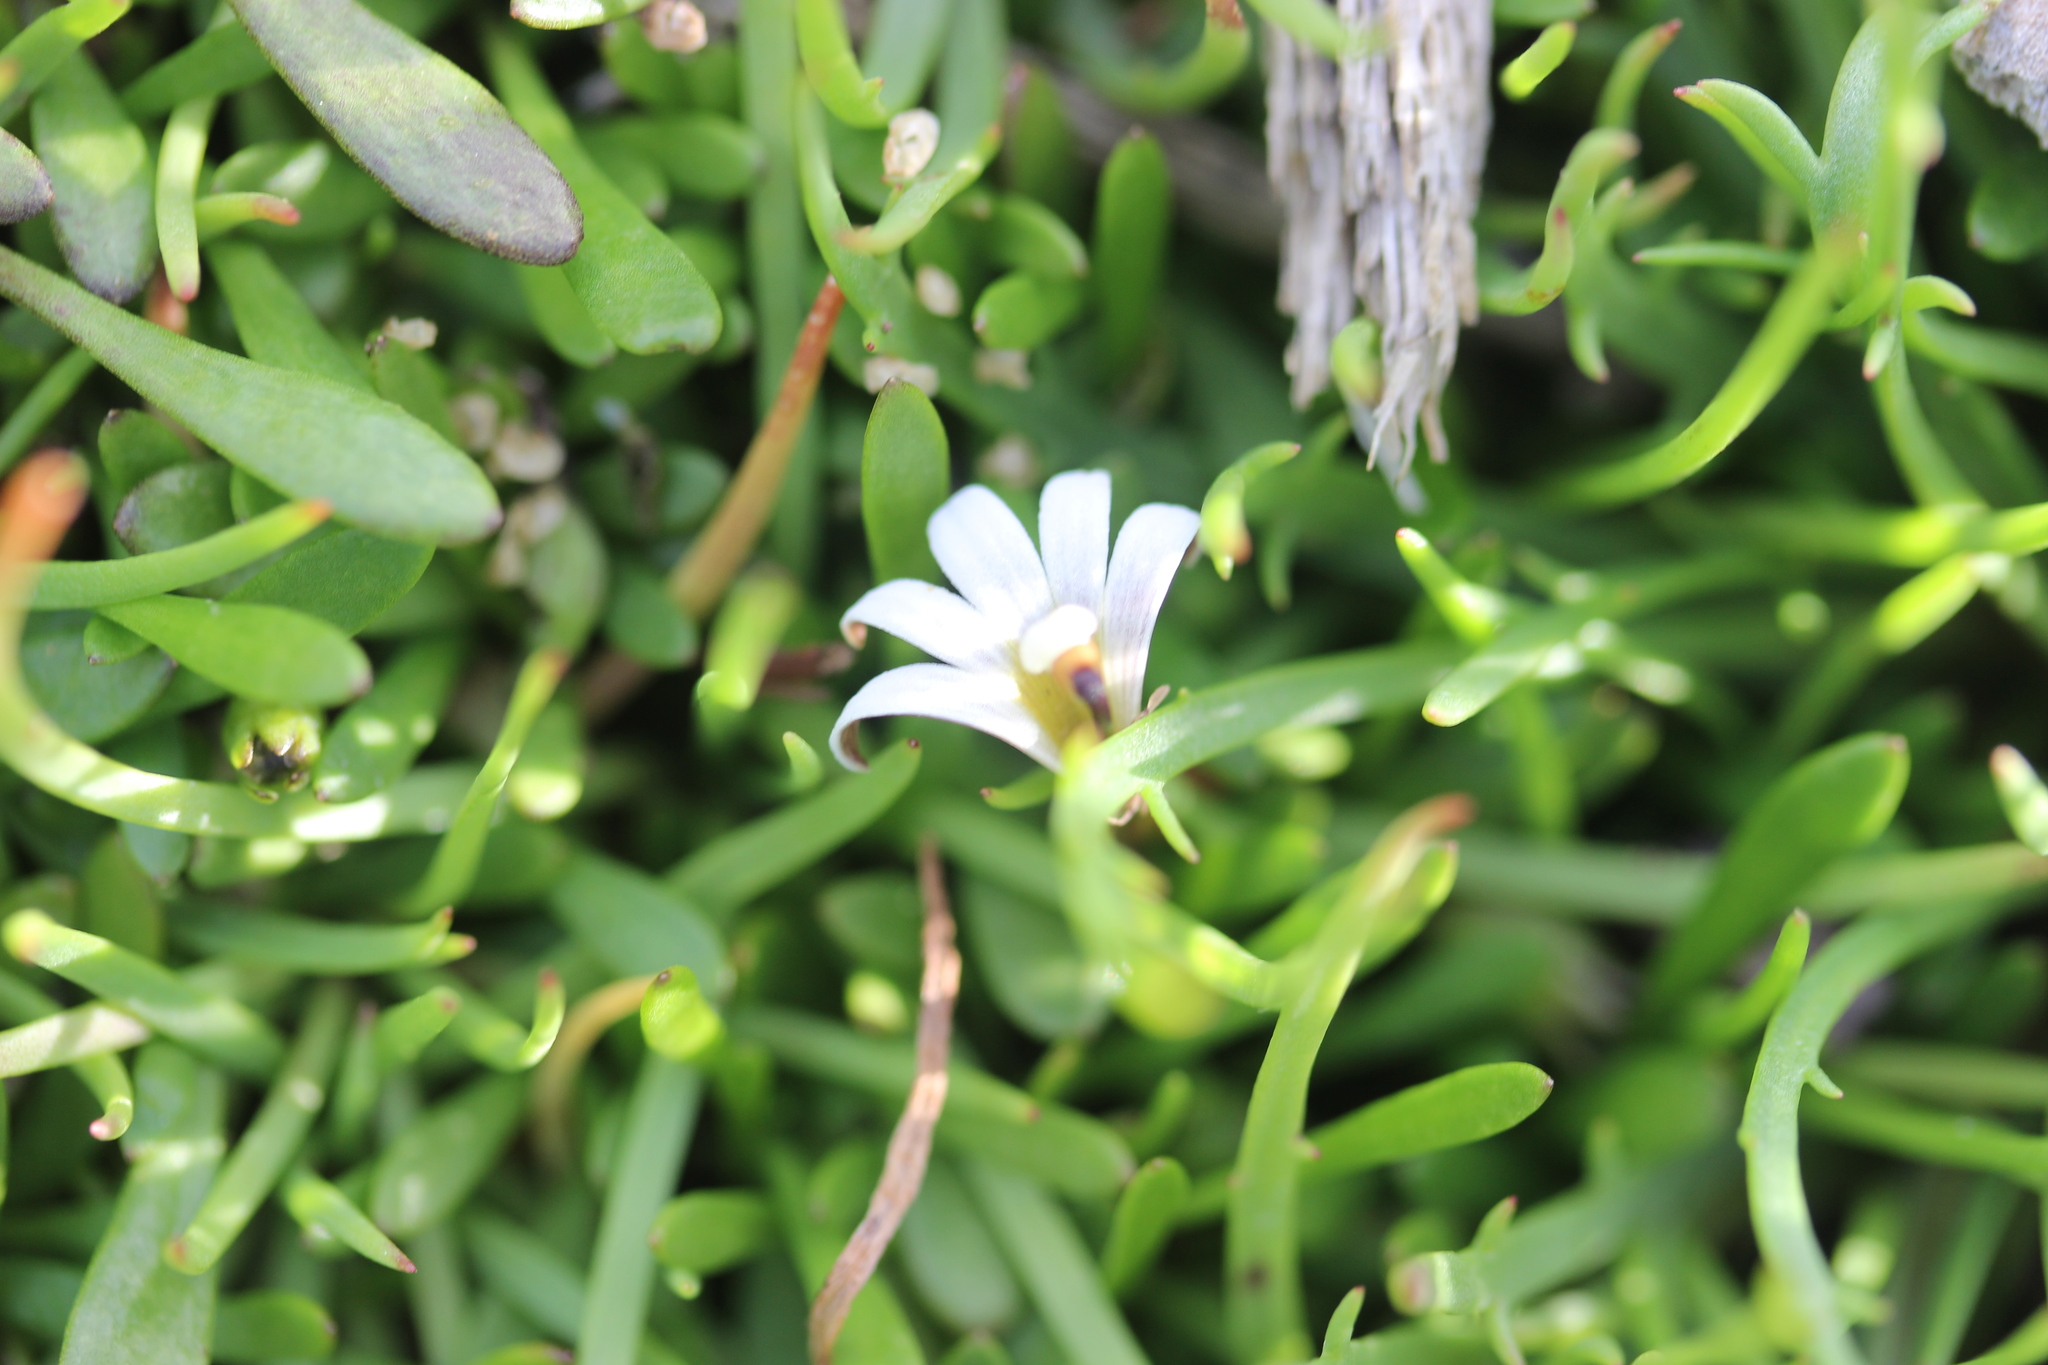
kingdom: Plantae
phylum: Tracheophyta
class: Magnoliopsida
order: Asterales
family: Goodeniaceae
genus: Goodenia
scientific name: Goodenia radicans
